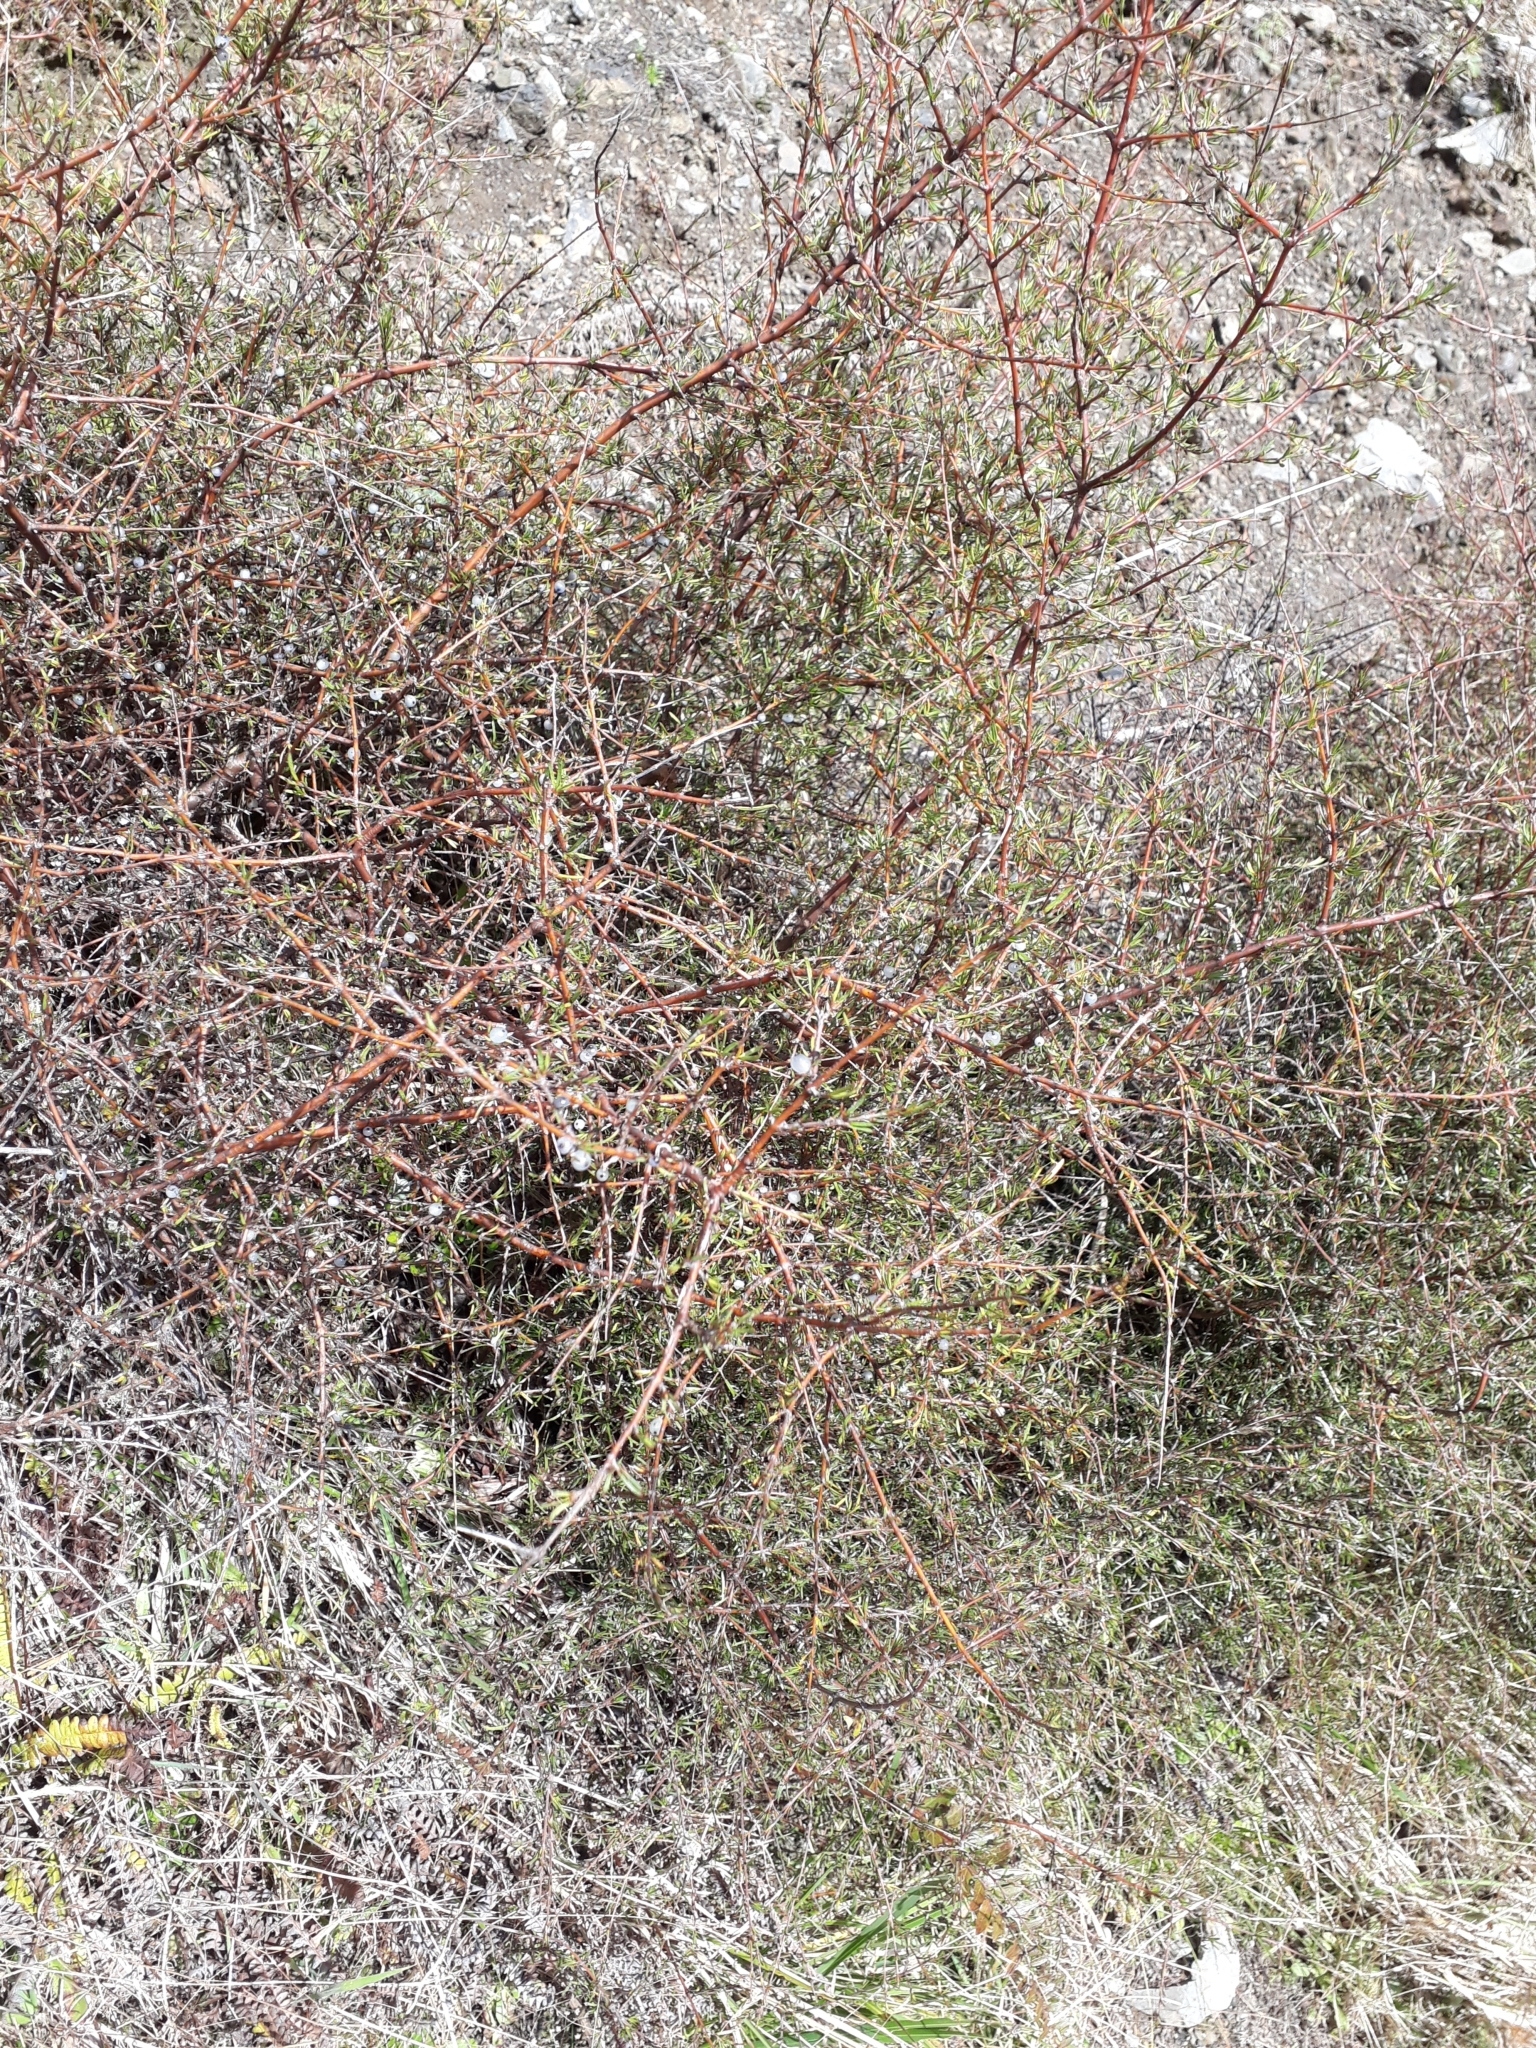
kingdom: Plantae
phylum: Tracheophyta
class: Magnoliopsida
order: Gentianales
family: Rubiaceae
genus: Coprosma
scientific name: Coprosma rugosa
